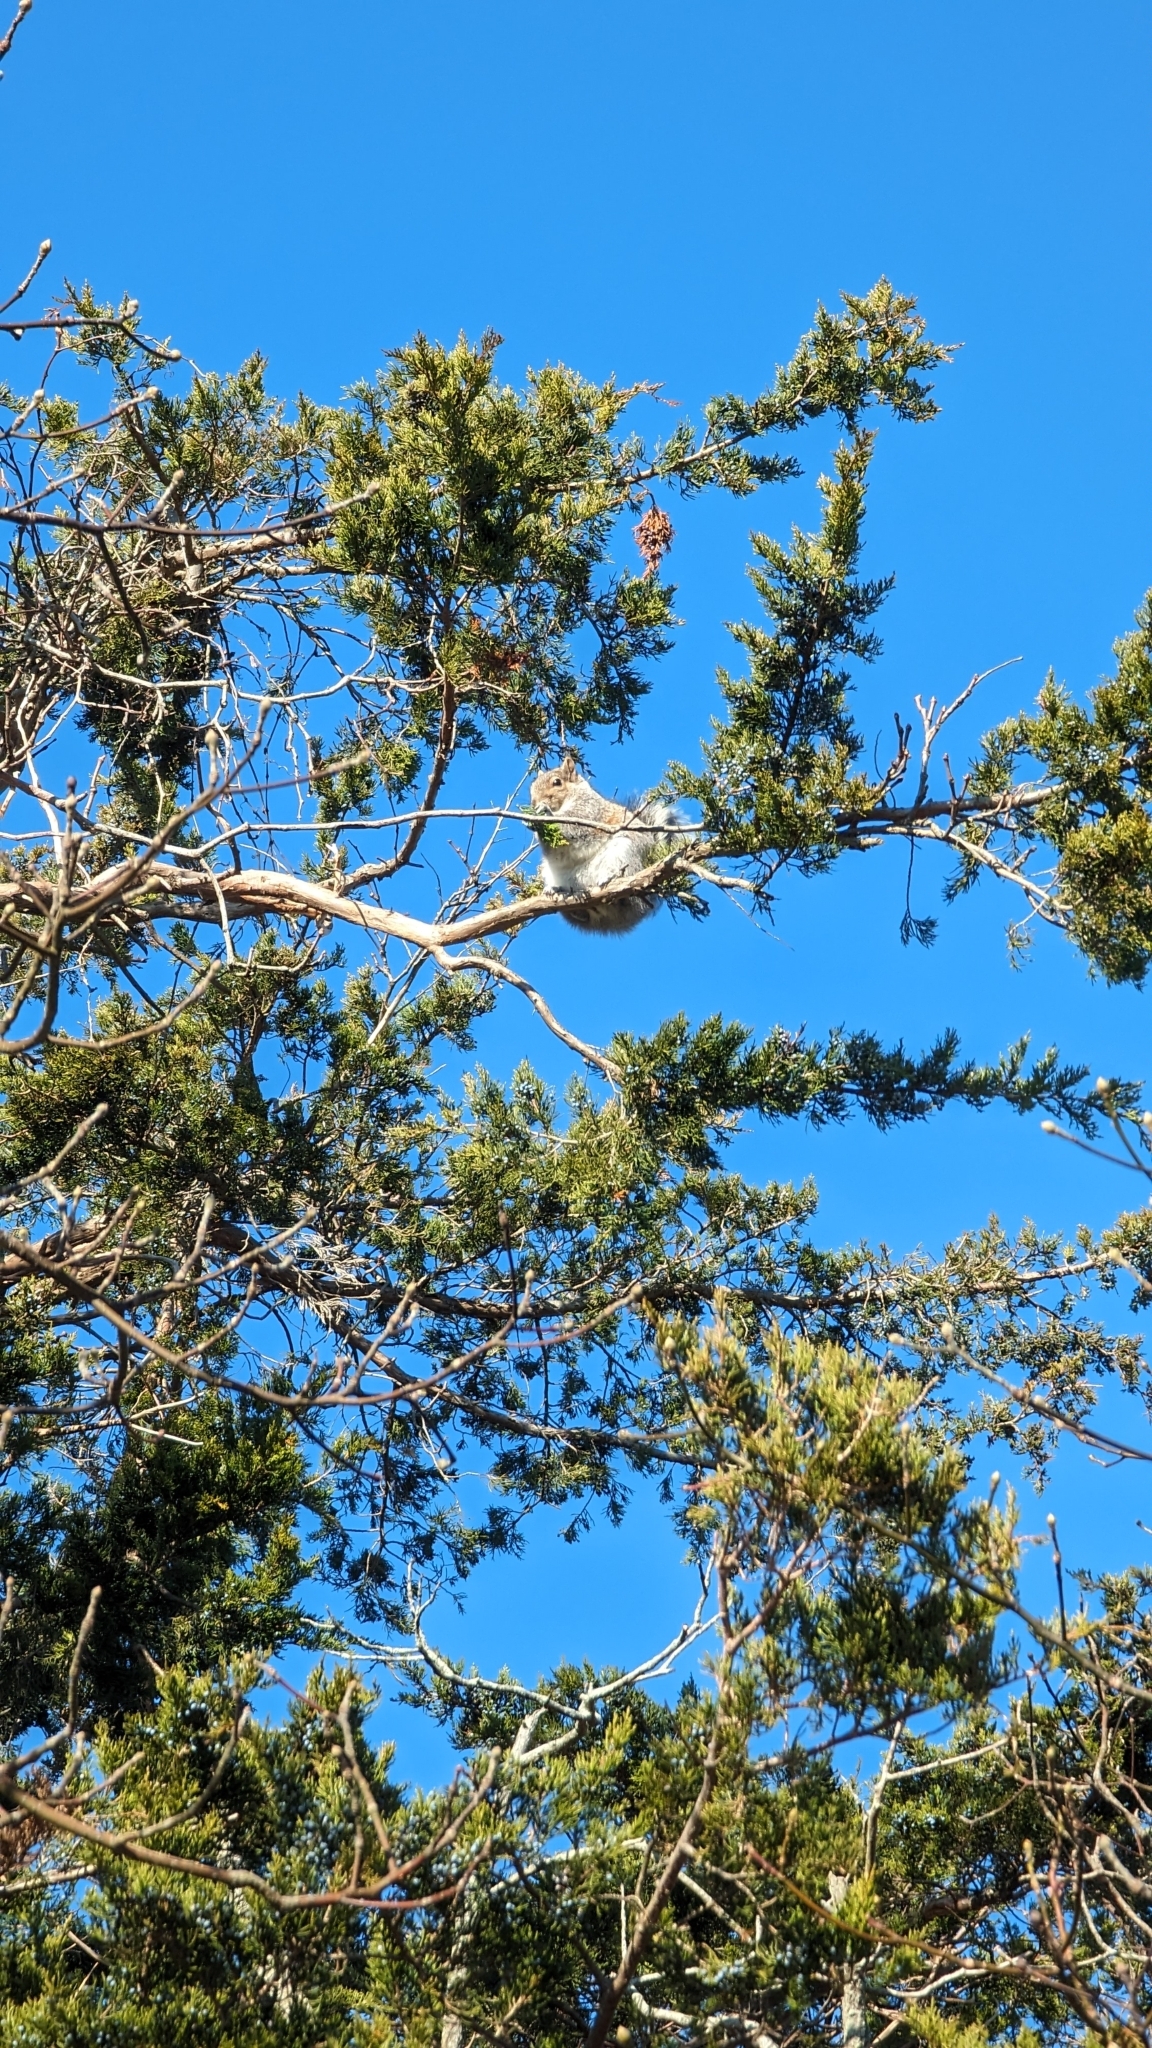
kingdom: Animalia
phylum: Chordata
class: Mammalia
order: Rodentia
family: Sciuridae
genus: Sciurus
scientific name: Sciurus carolinensis
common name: Eastern gray squirrel
